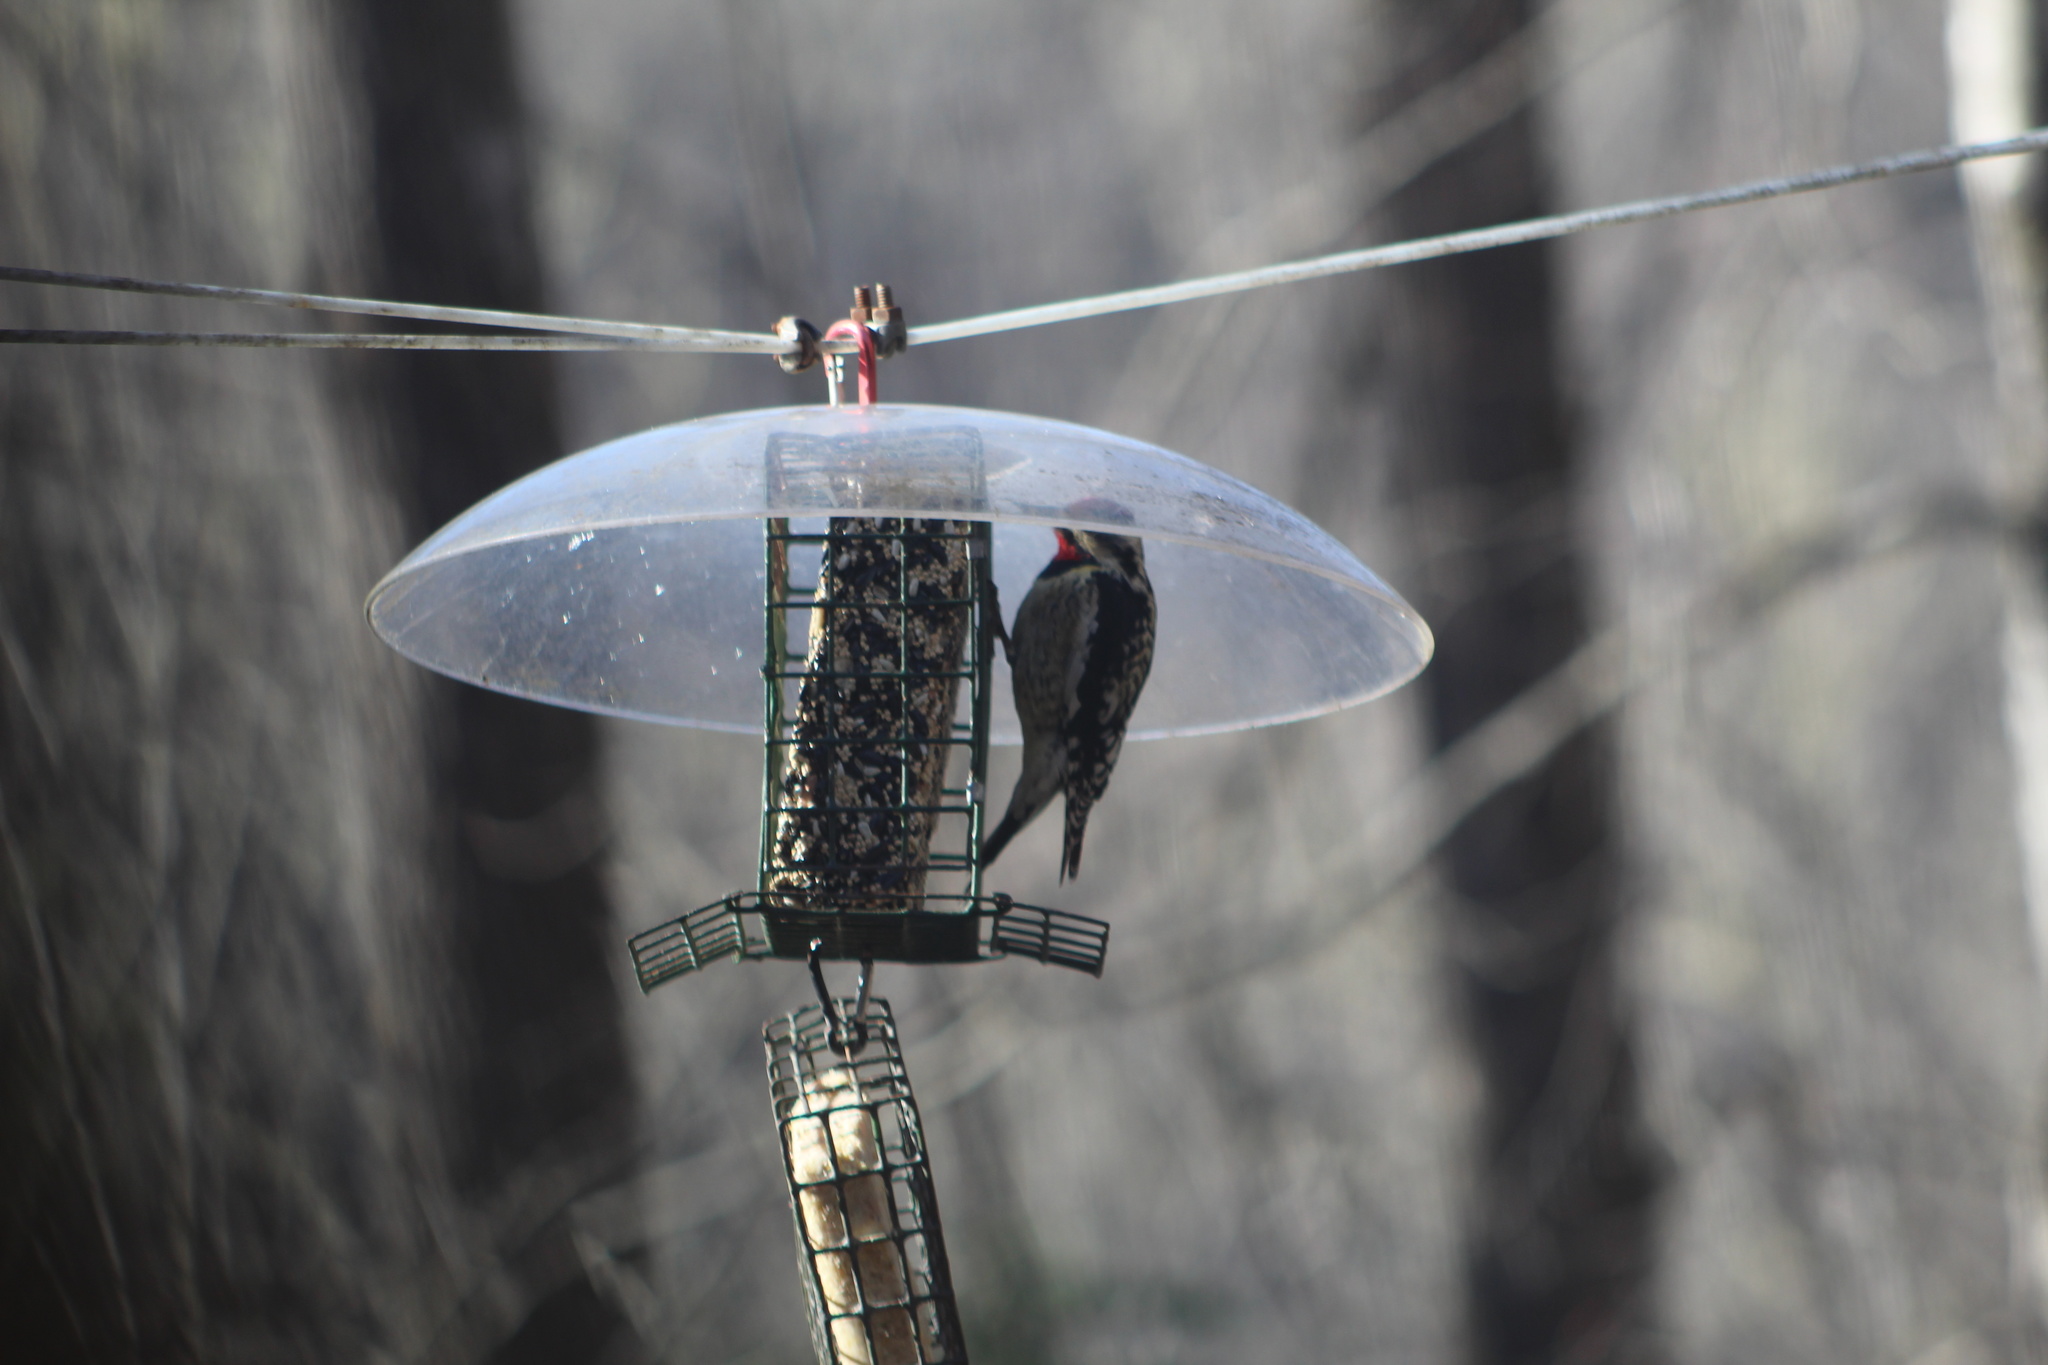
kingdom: Animalia
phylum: Chordata
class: Aves
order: Piciformes
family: Picidae
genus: Sphyrapicus
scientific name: Sphyrapicus varius
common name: Yellow-bellied sapsucker
